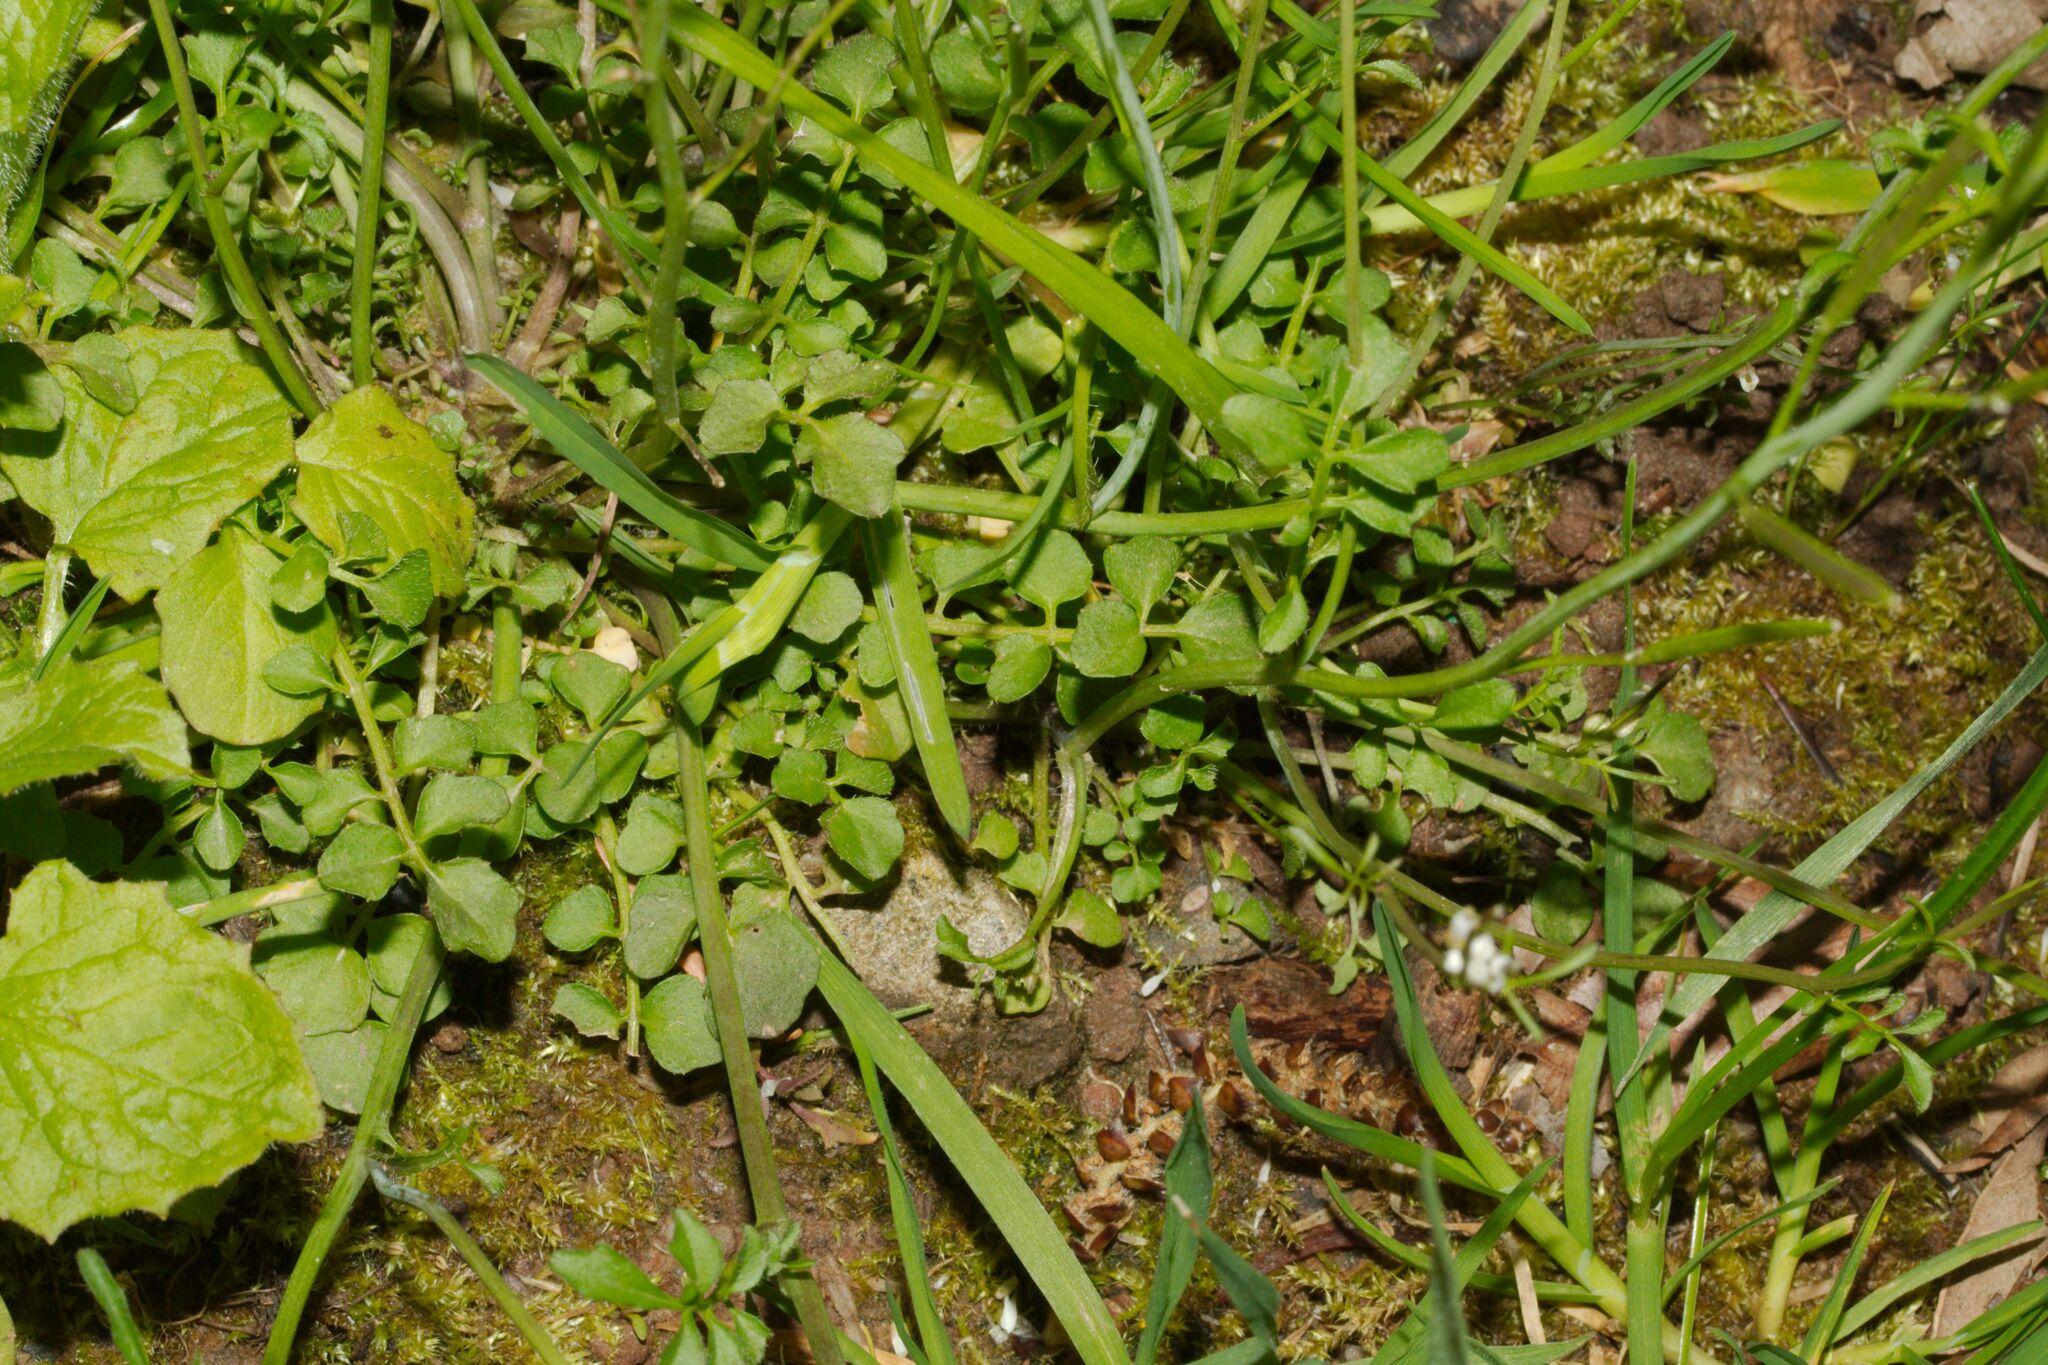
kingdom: Plantae
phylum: Tracheophyta
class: Magnoliopsida
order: Brassicales
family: Brassicaceae
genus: Cardamine
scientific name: Cardamine flexuosa
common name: Woodland bittercress
